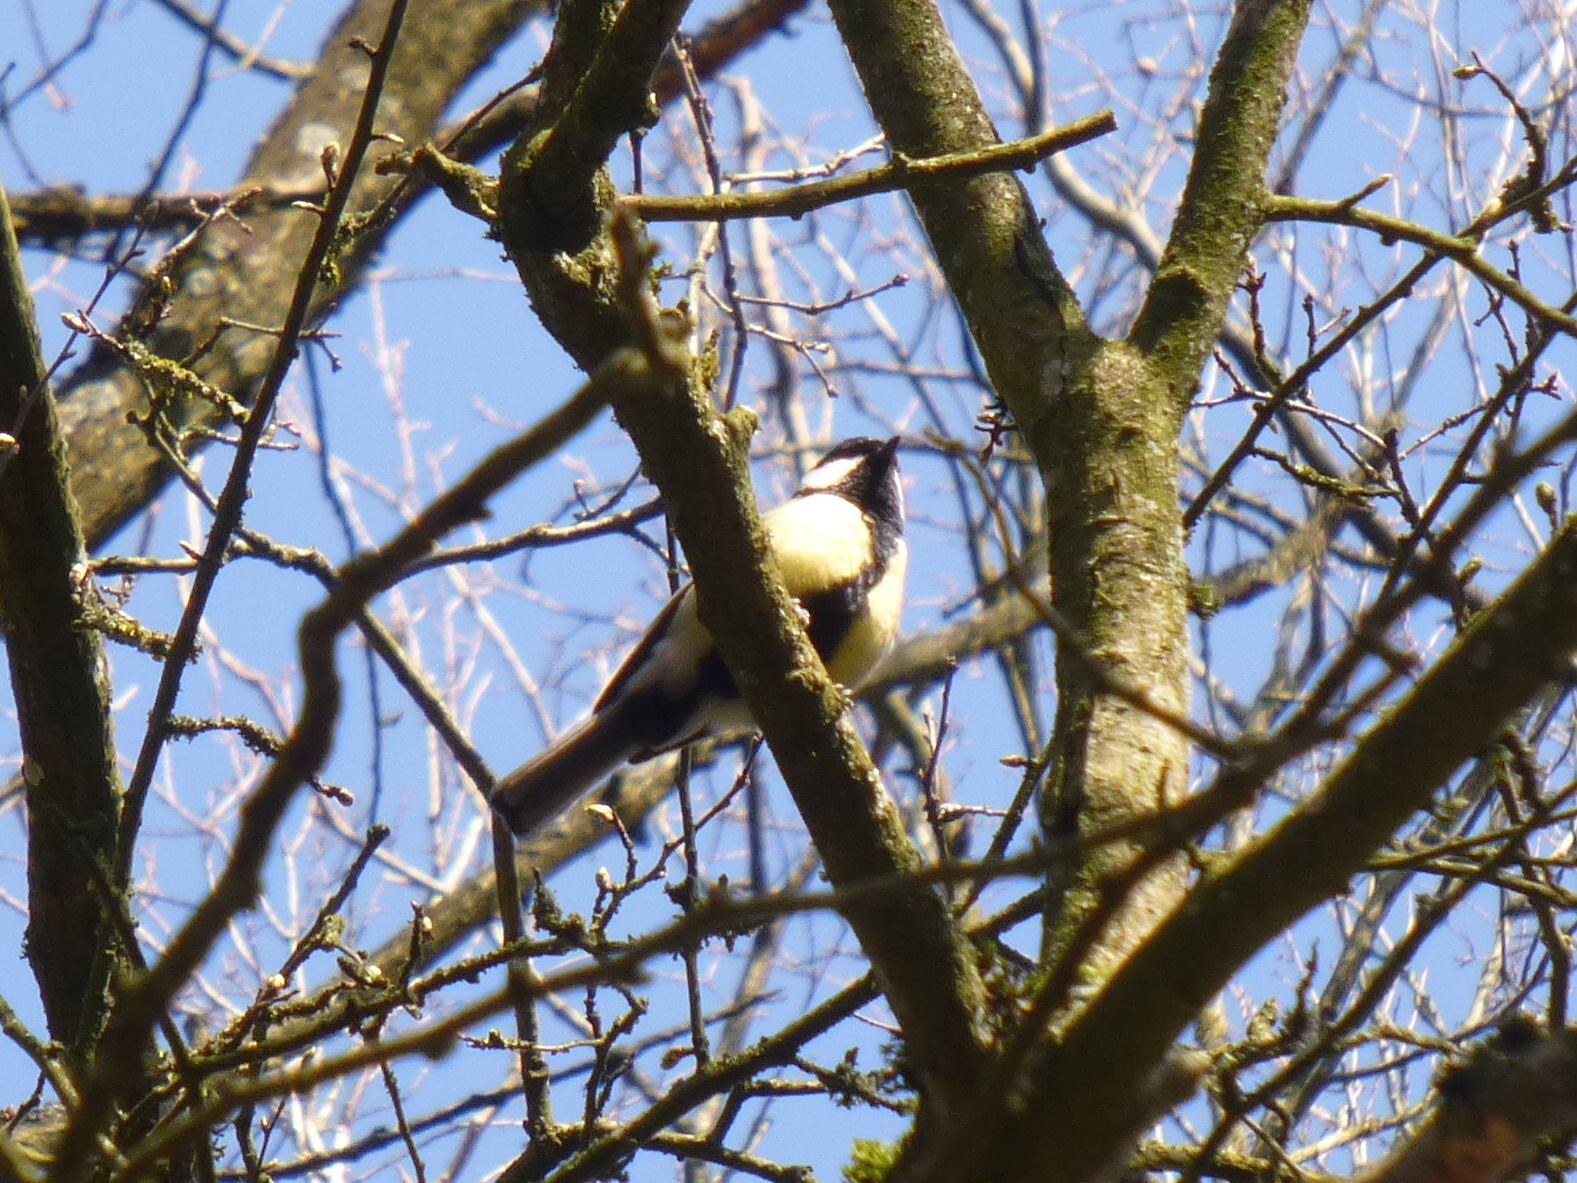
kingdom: Animalia
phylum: Chordata
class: Aves
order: Passeriformes
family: Paridae
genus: Parus
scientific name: Parus major
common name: Great tit
